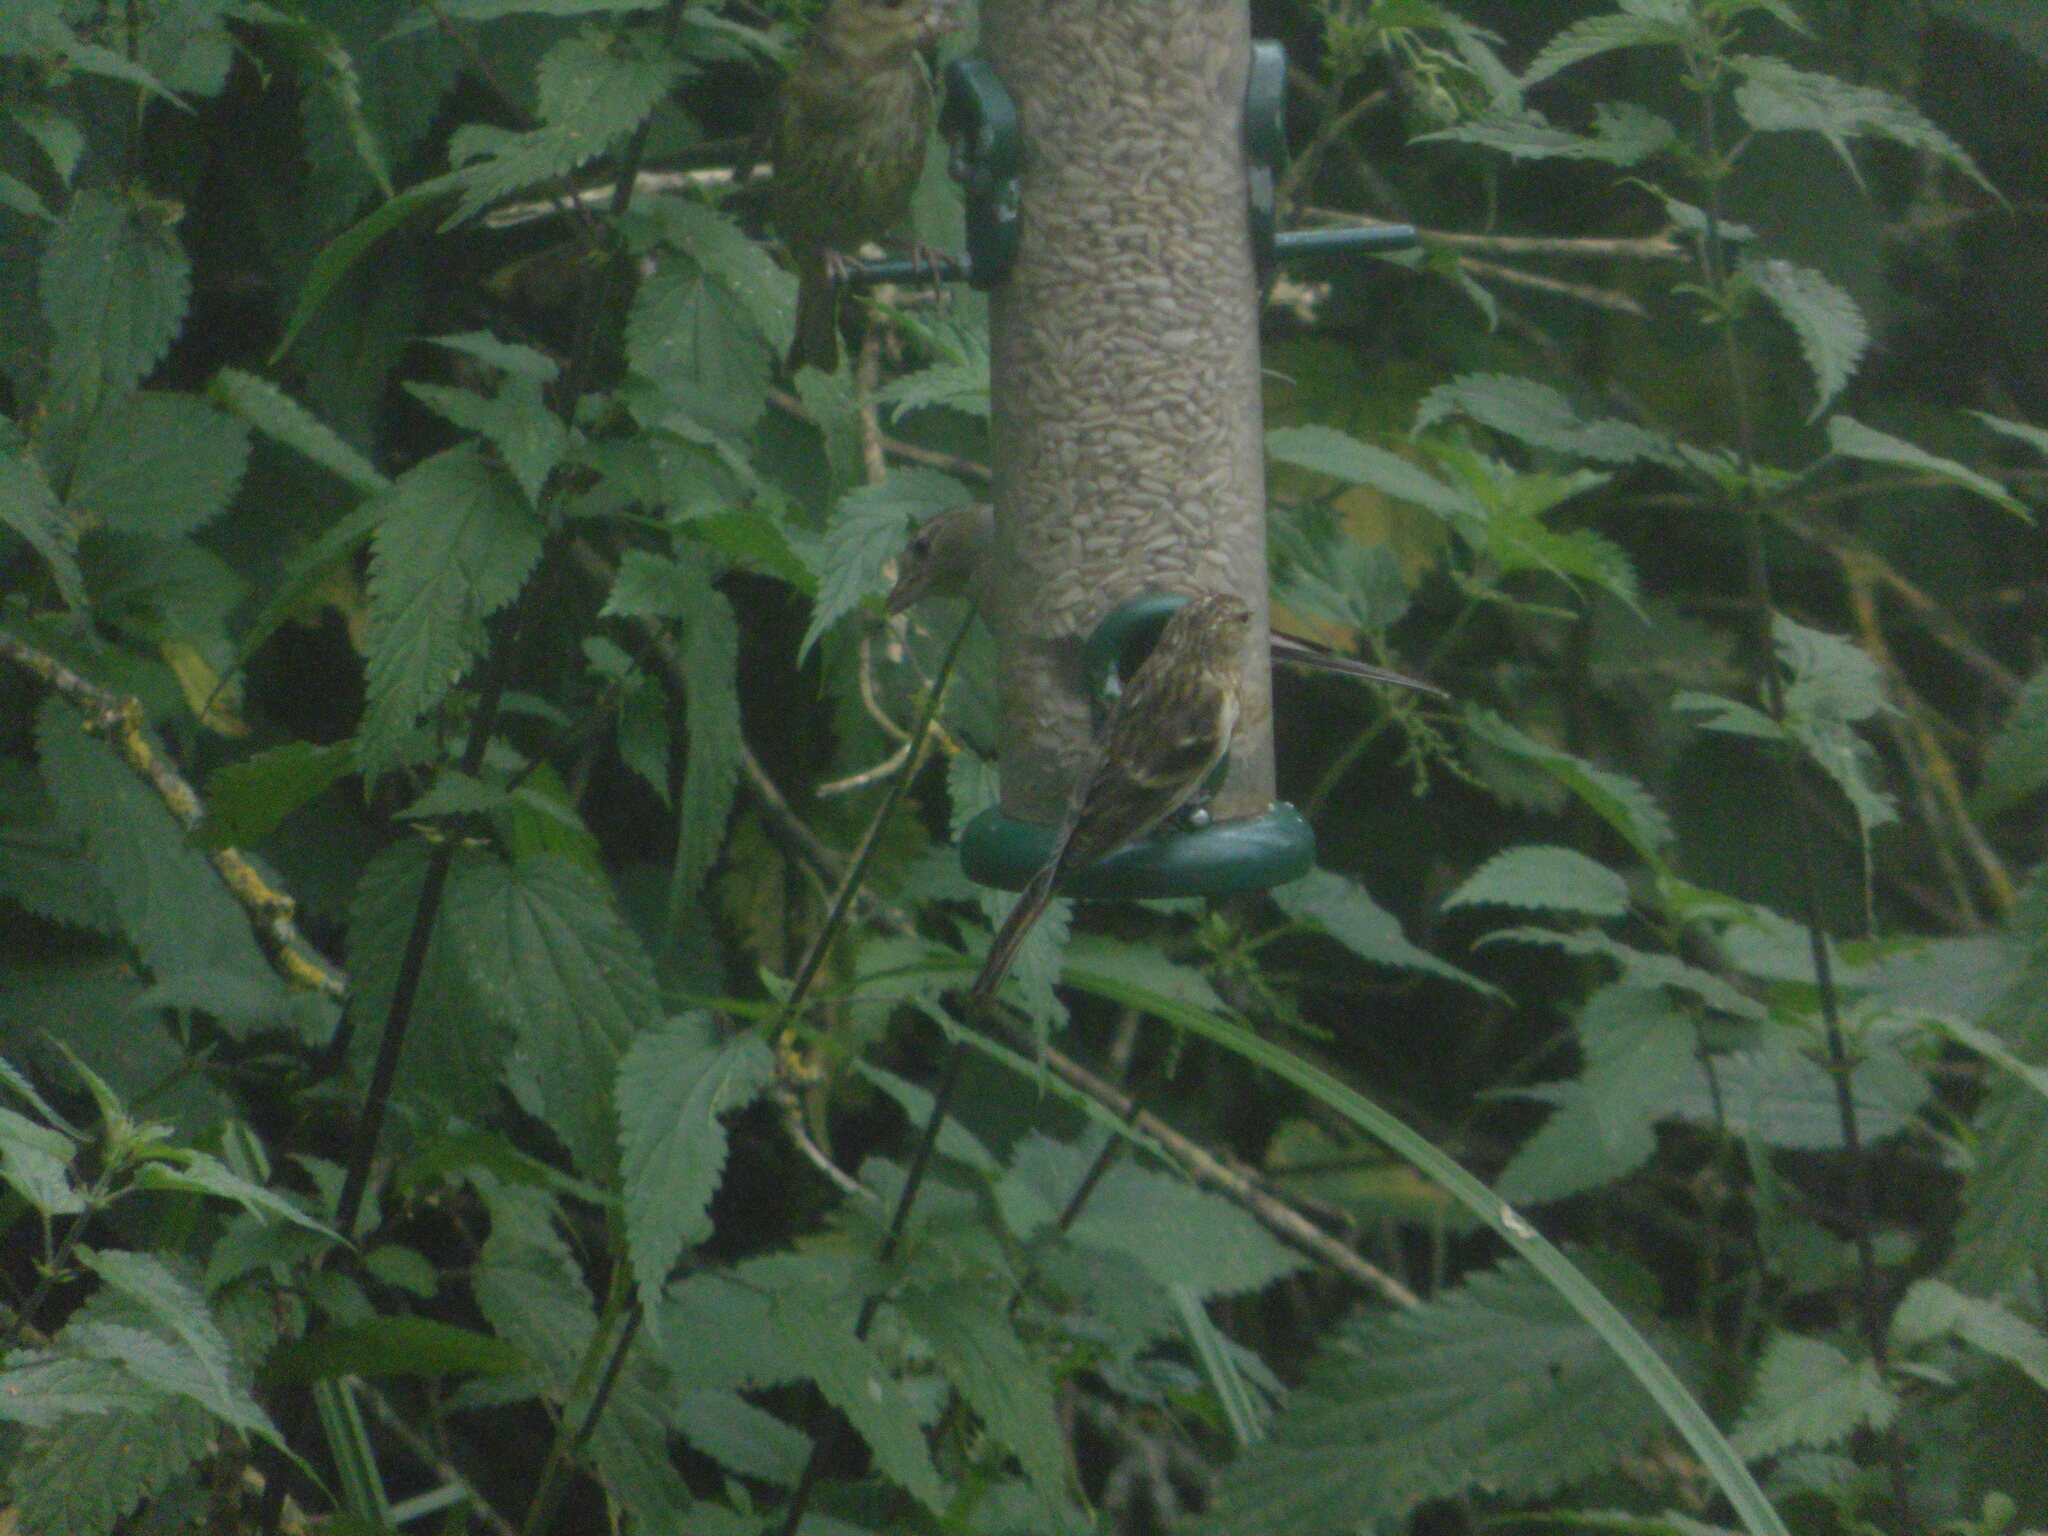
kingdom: Animalia
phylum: Chordata
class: Aves
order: Passeriformes
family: Fringillidae
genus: Acanthis
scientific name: Acanthis flammea
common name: Common redpoll
